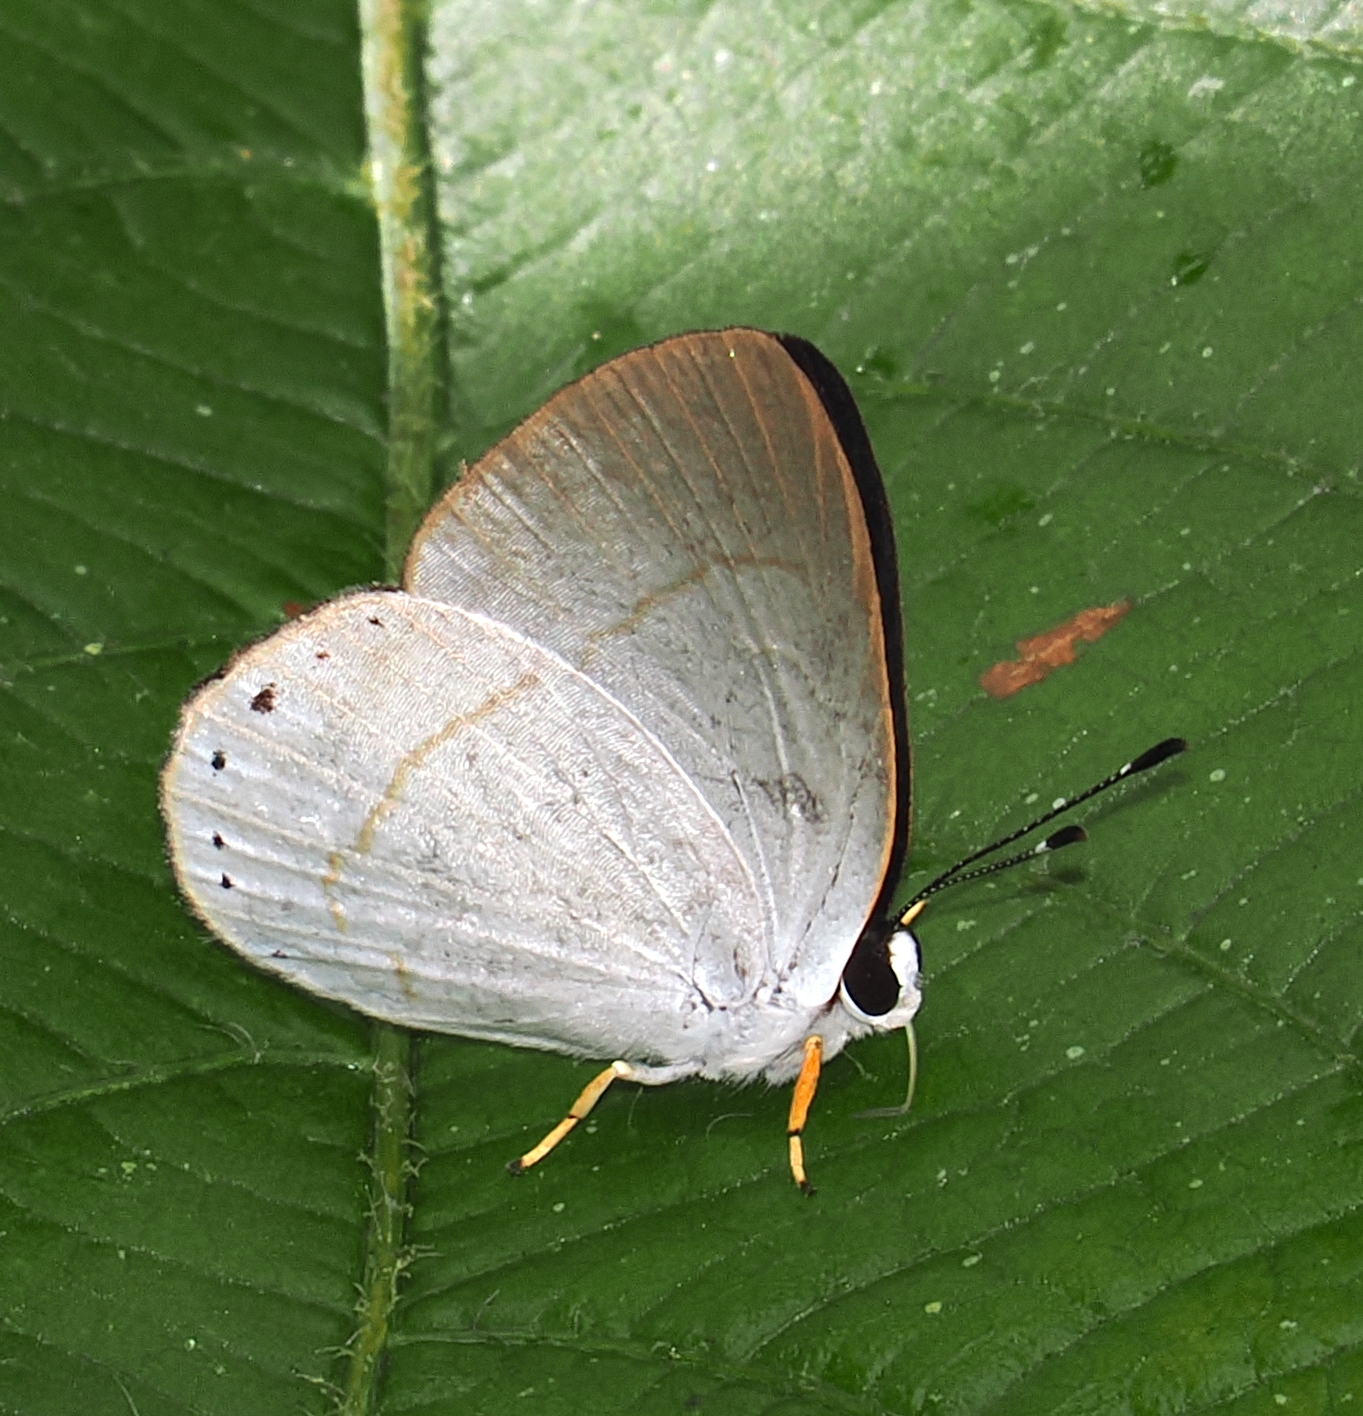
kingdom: Animalia
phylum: Arthropoda
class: Insecta
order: Lepidoptera
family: Lycaenidae
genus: Euselasia
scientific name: Euselasia eusepus
